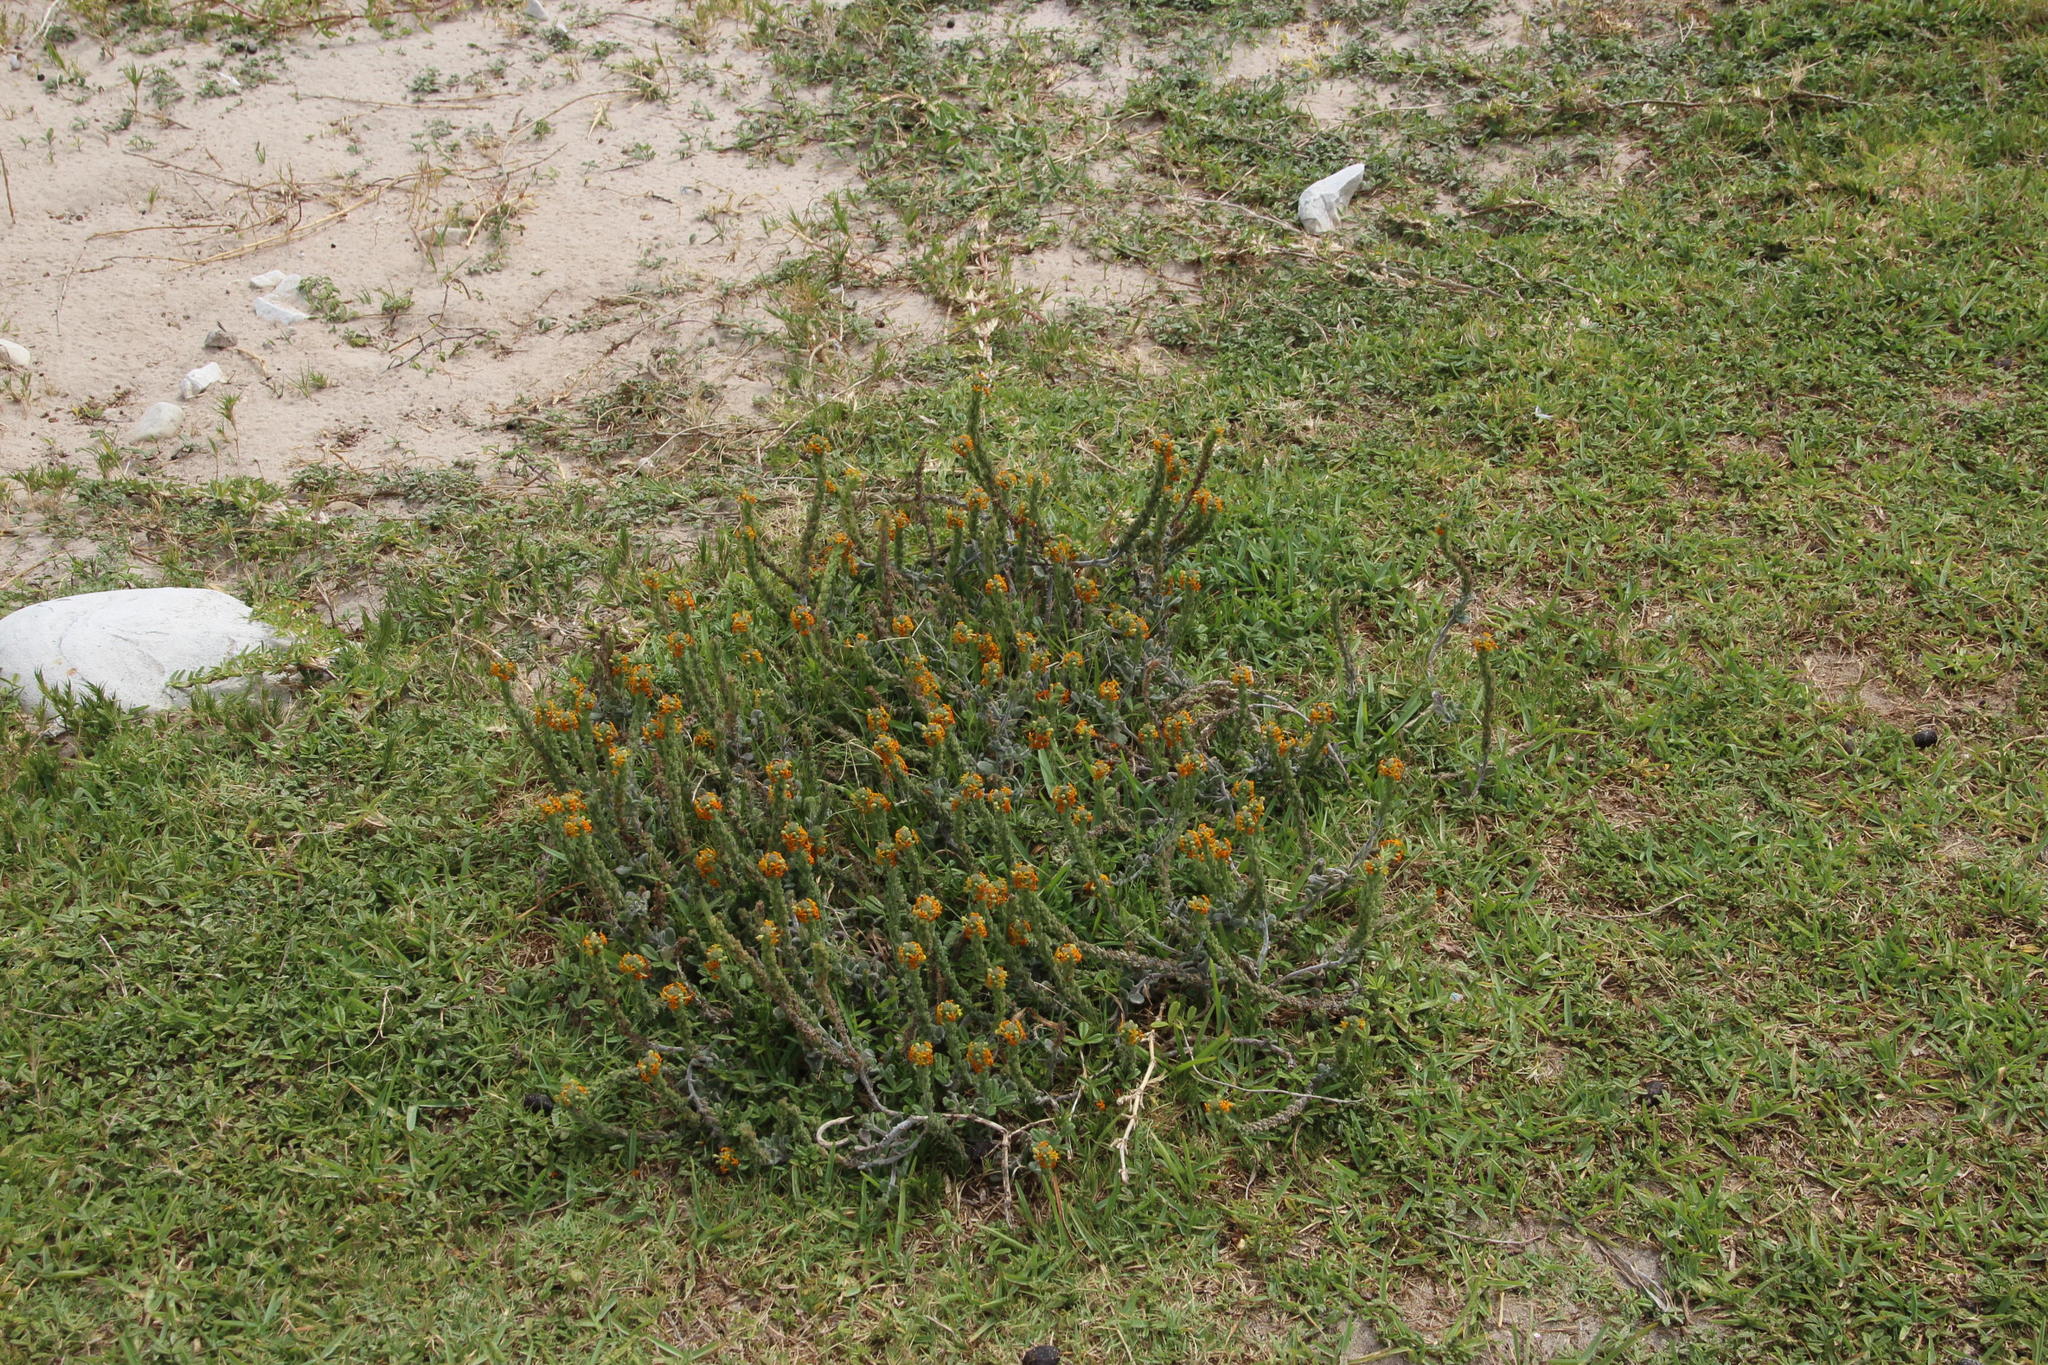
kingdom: Plantae
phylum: Tracheophyta
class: Magnoliopsida
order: Lamiales
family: Scrophulariaceae
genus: Manulea
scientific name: Manulea tomentosa
